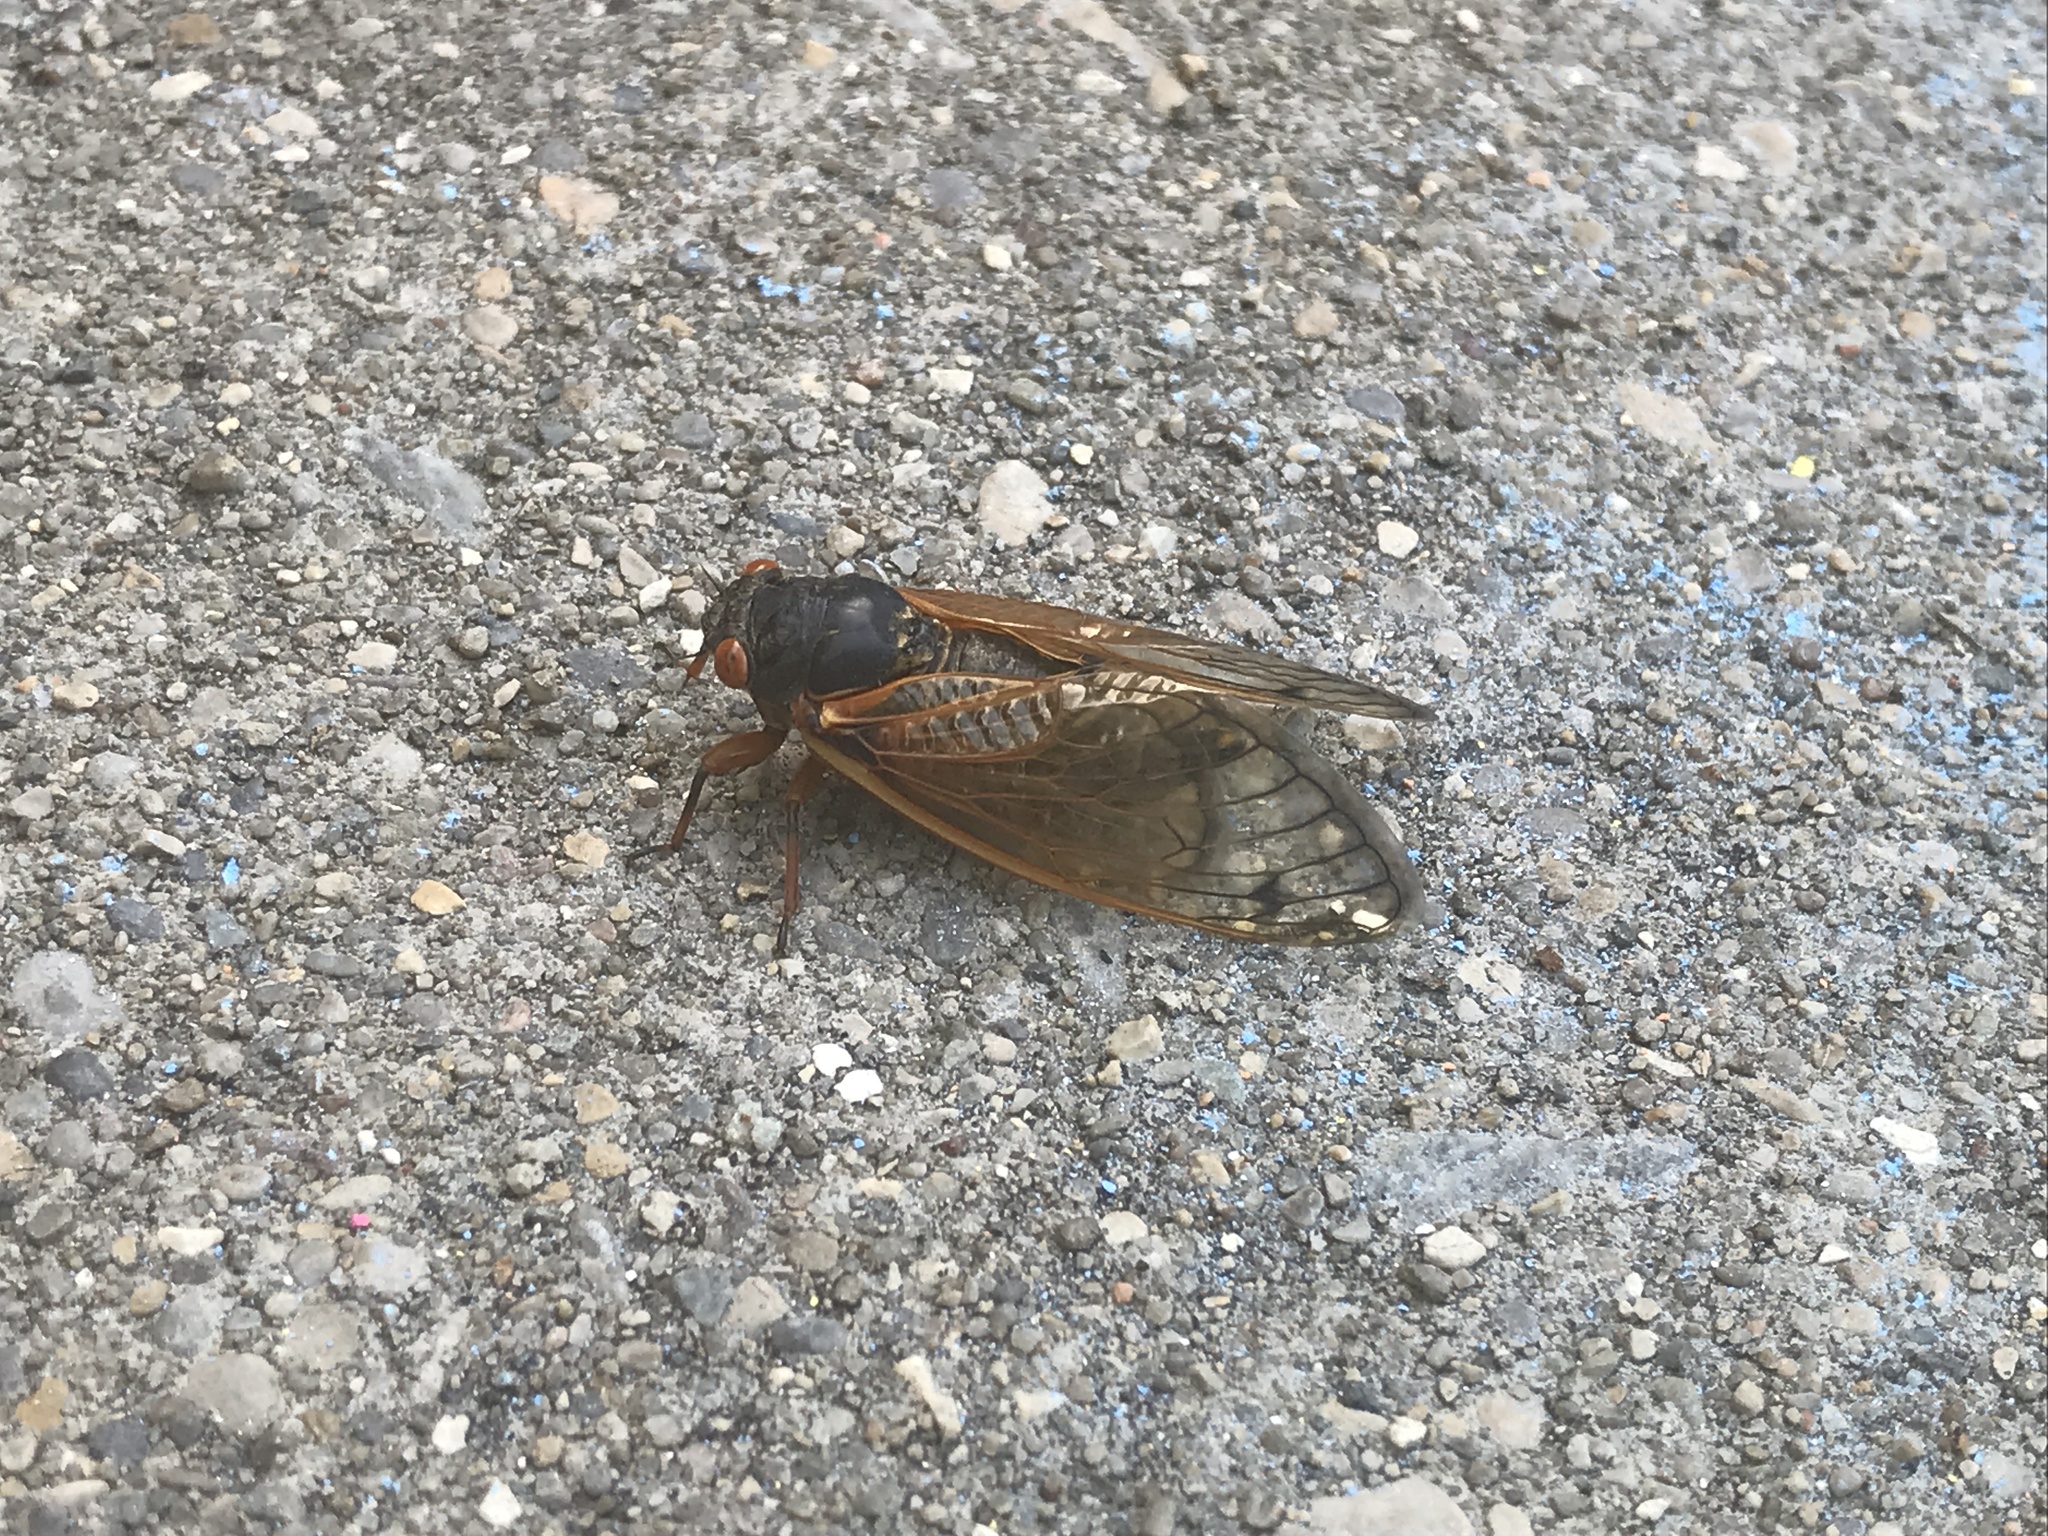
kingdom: Animalia
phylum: Arthropoda
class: Insecta
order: Hemiptera
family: Cicadidae
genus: Magicicada
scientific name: Magicicada
